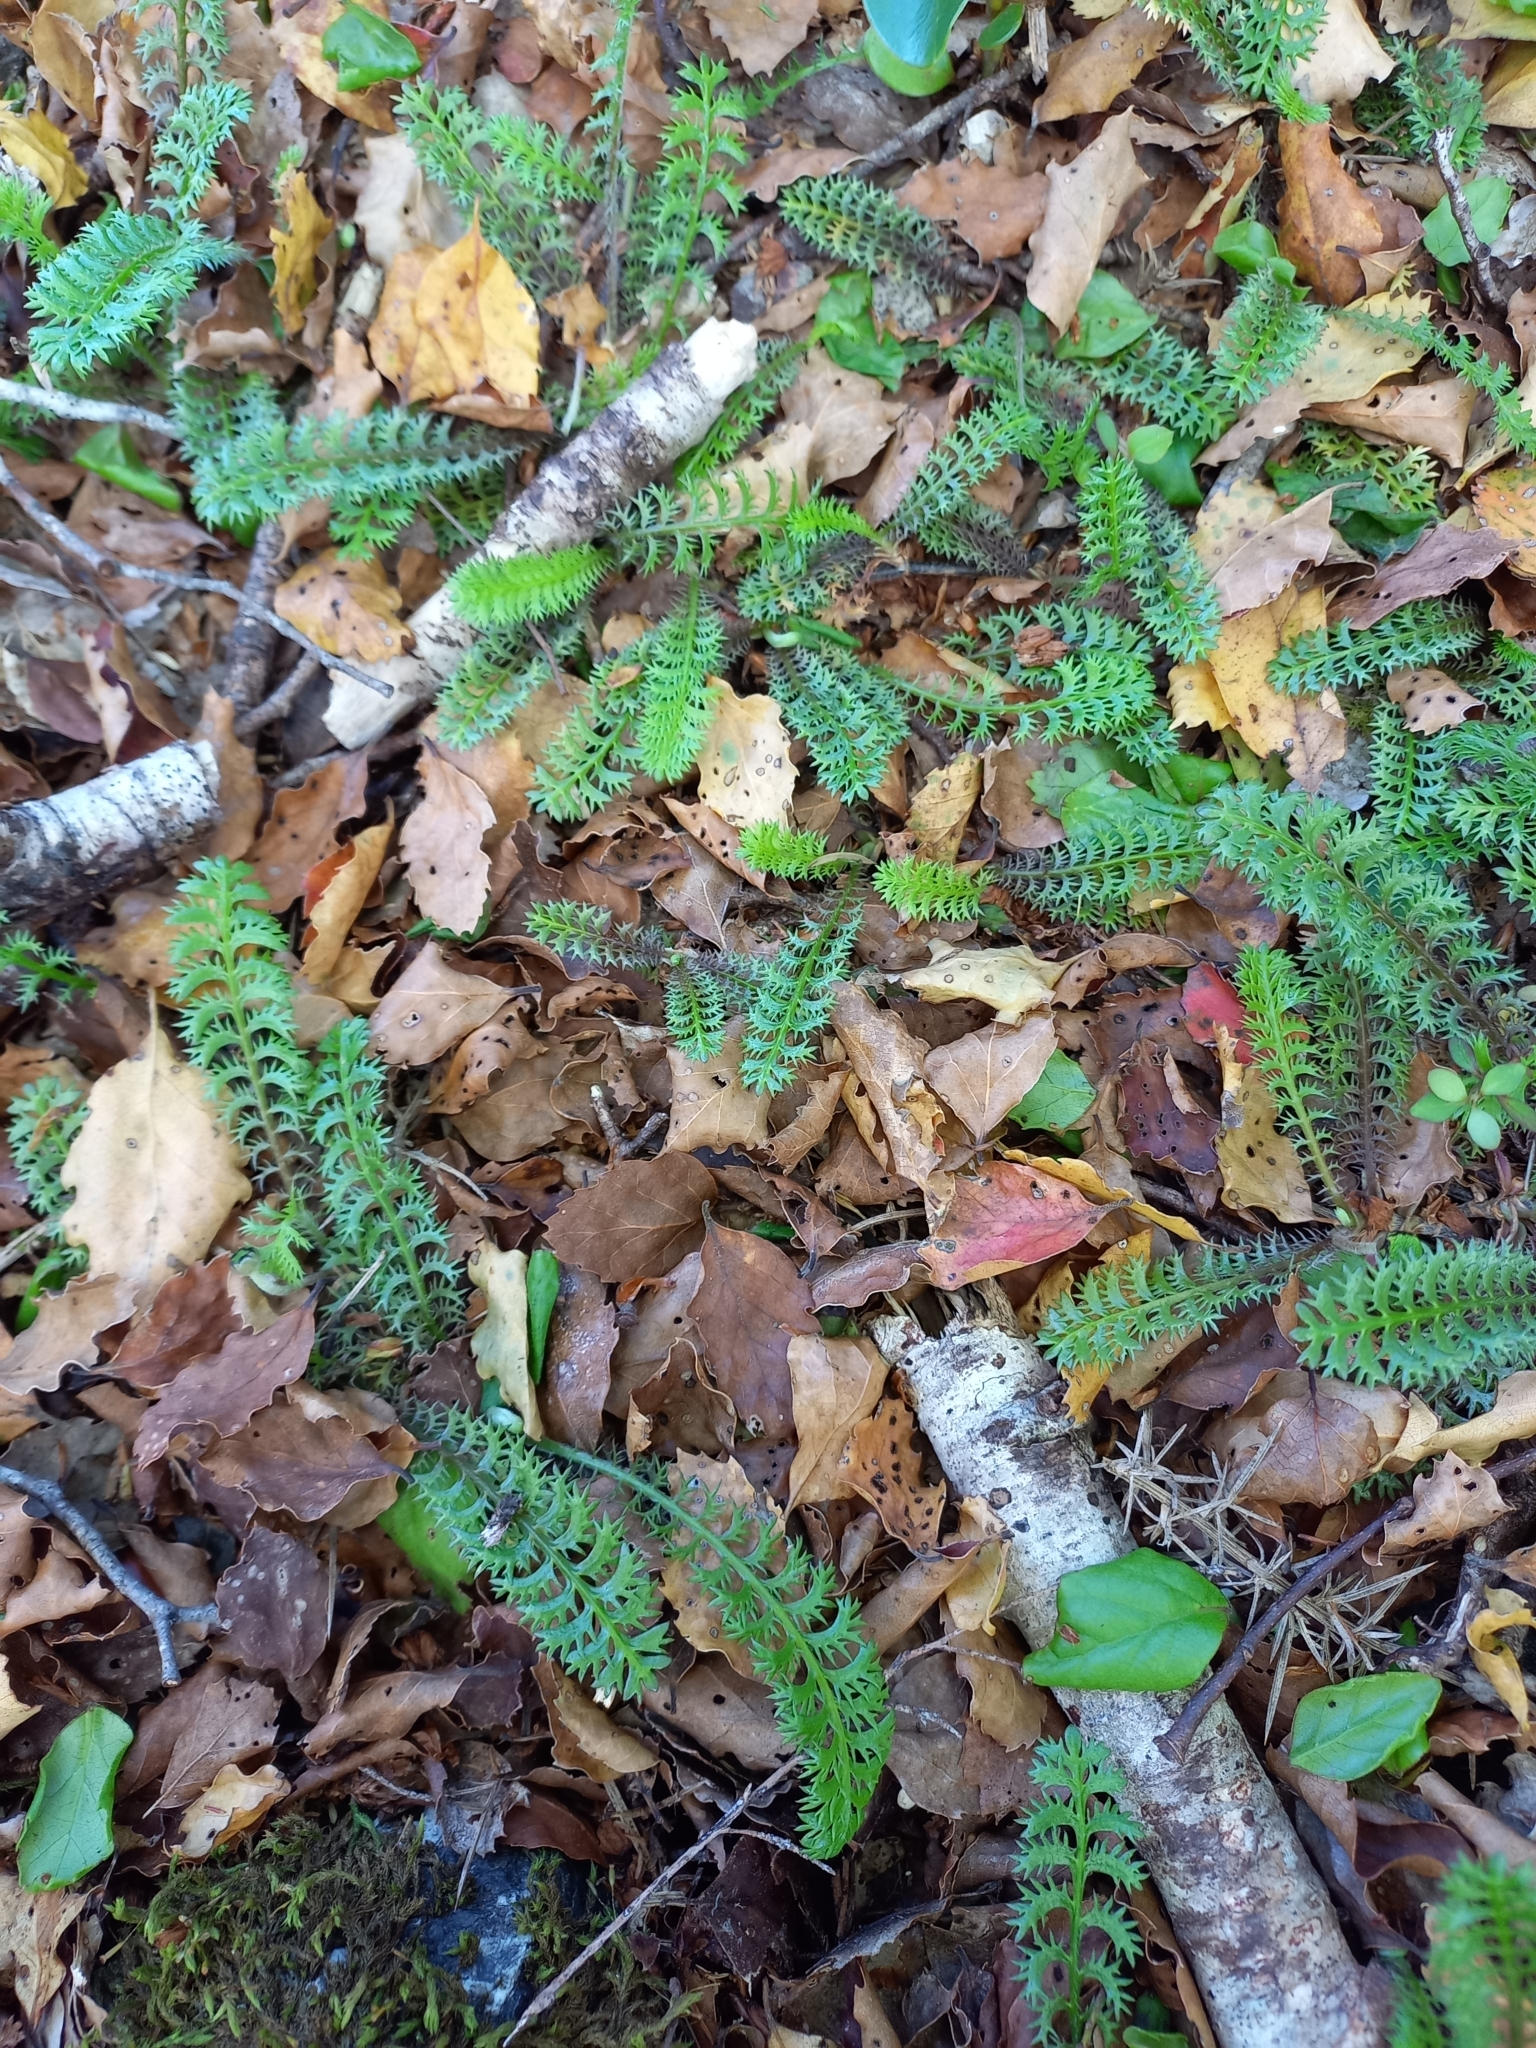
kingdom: Plantae
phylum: Tracheophyta
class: Magnoliopsida
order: Asterales
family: Asteraceae
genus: Leptinella
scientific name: Leptinella squalida
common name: New zealand brass-buttons
